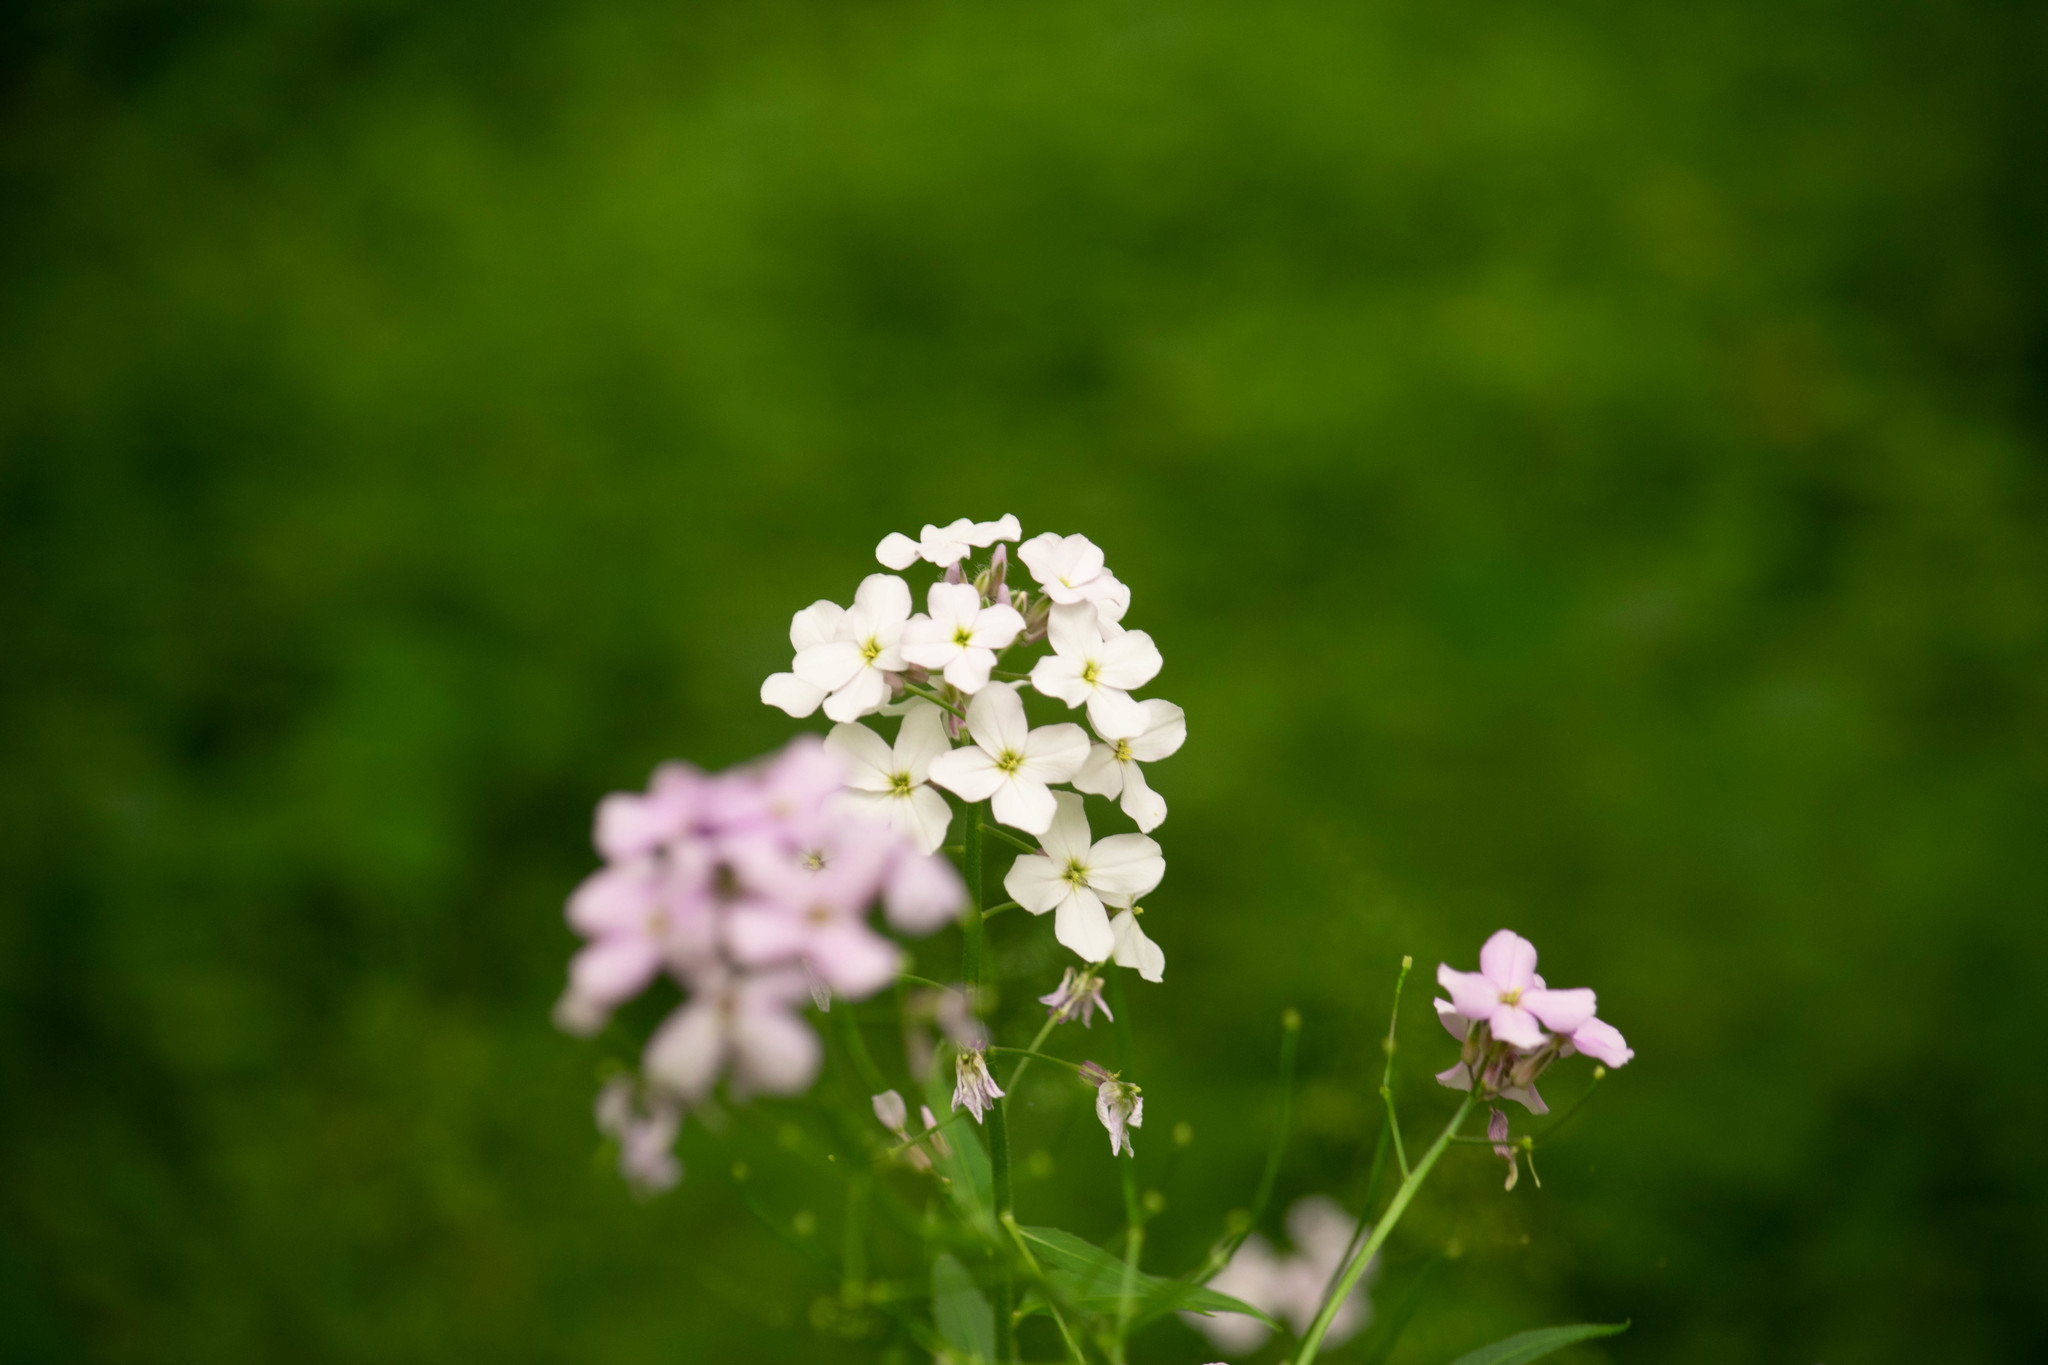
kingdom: Plantae
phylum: Tracheophyta
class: Magnoliopsida
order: Brassicales
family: Brassicaceae
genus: Hesperis
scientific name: Hesperis matronalis
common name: Dame's-violet
